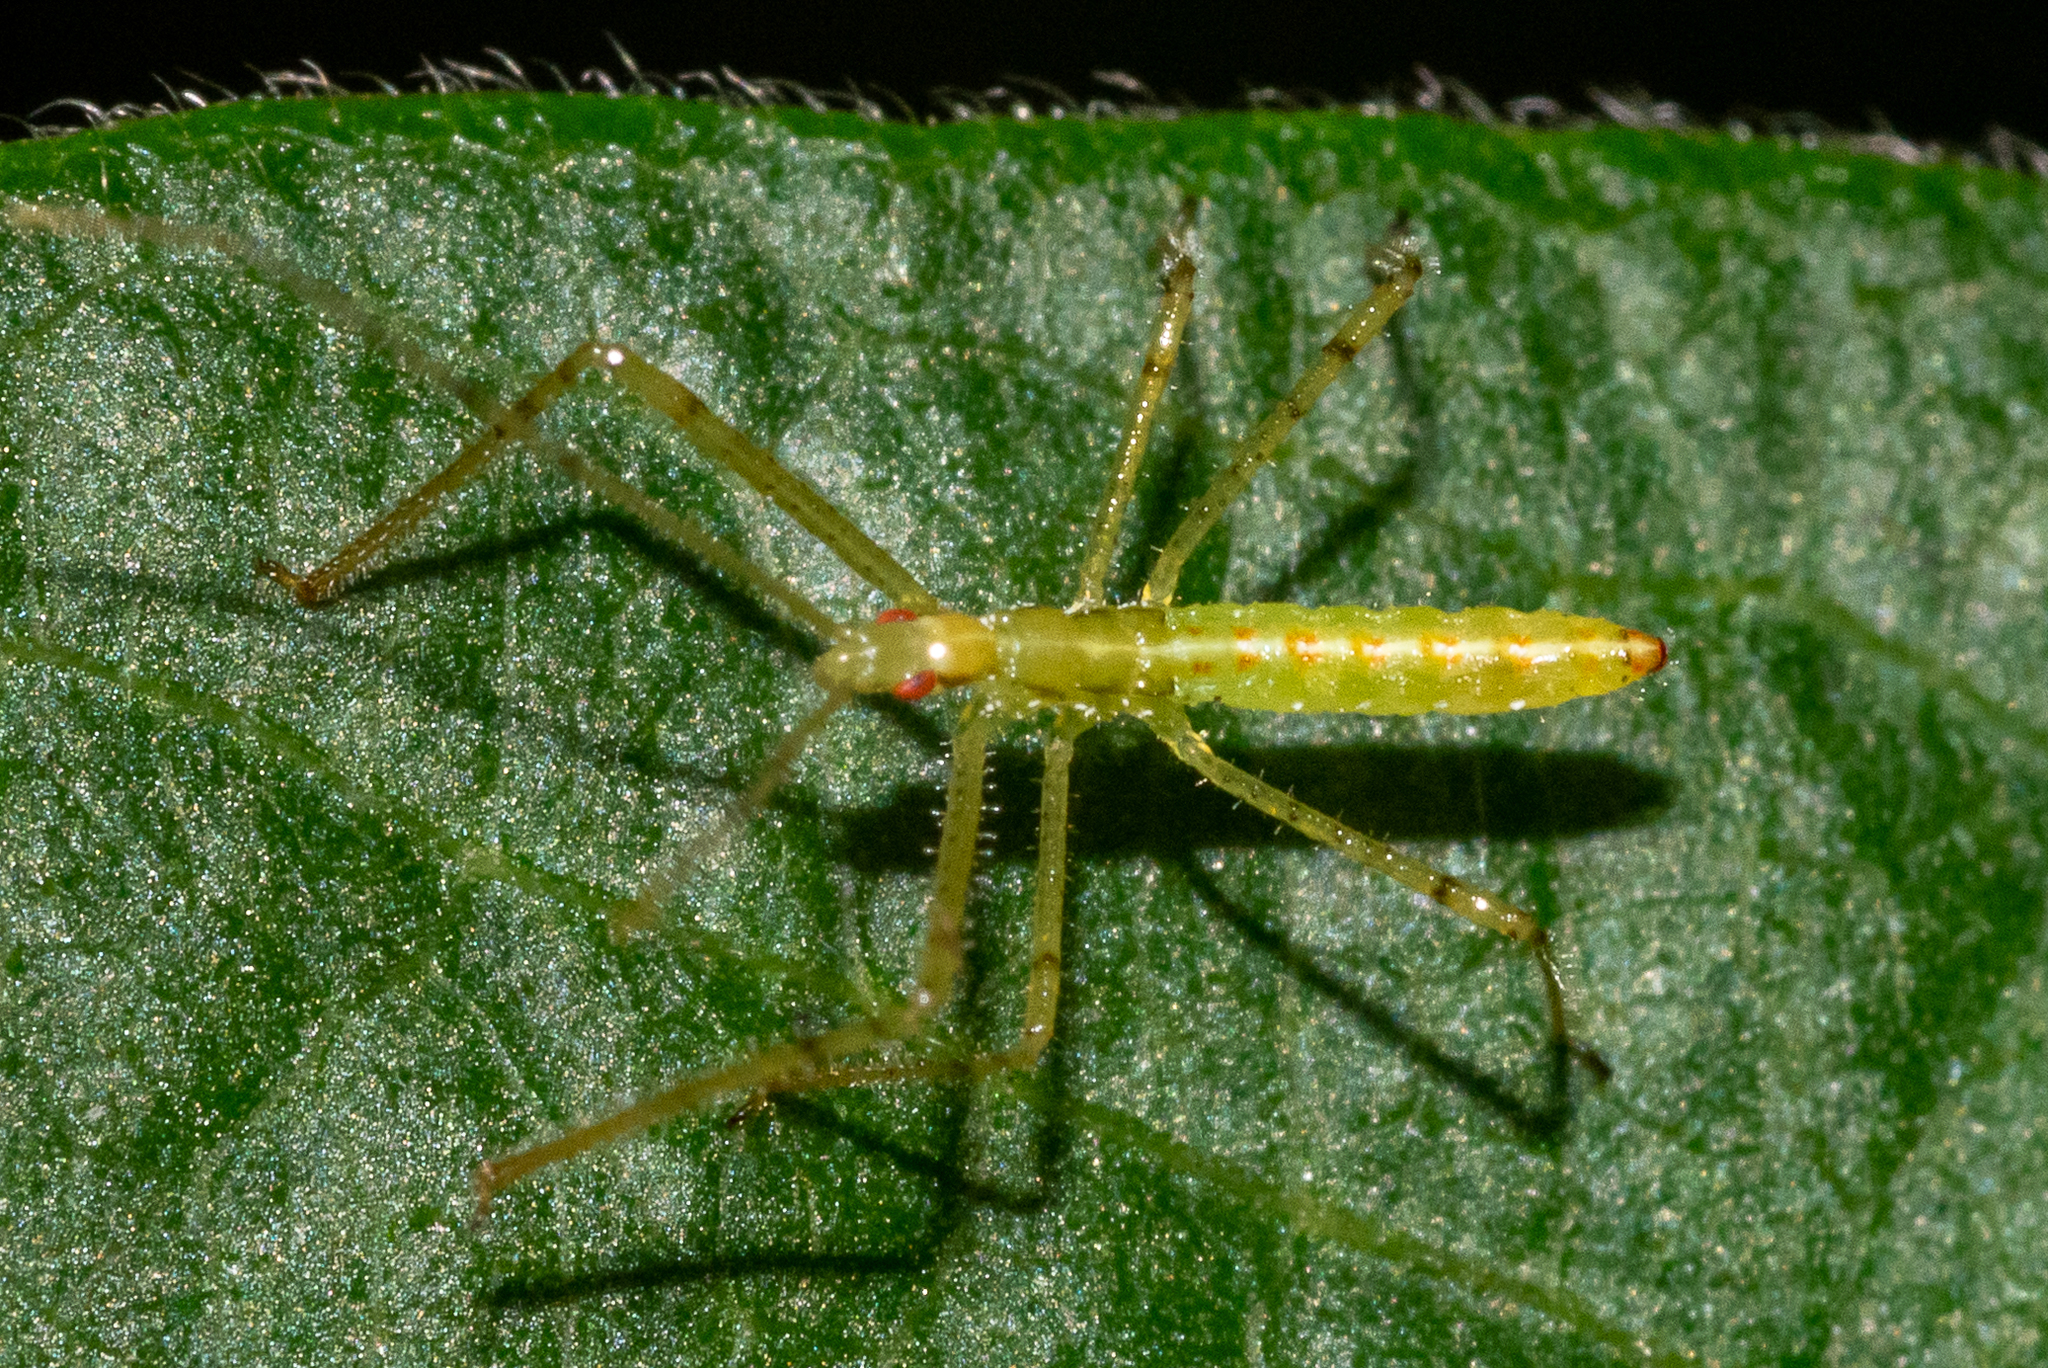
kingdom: Animalia
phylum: Arthropoda
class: Insecta
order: Hemiptera
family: Reduviidae
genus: Zelus
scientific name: Zelus luridus
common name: Pale green assassin bug
